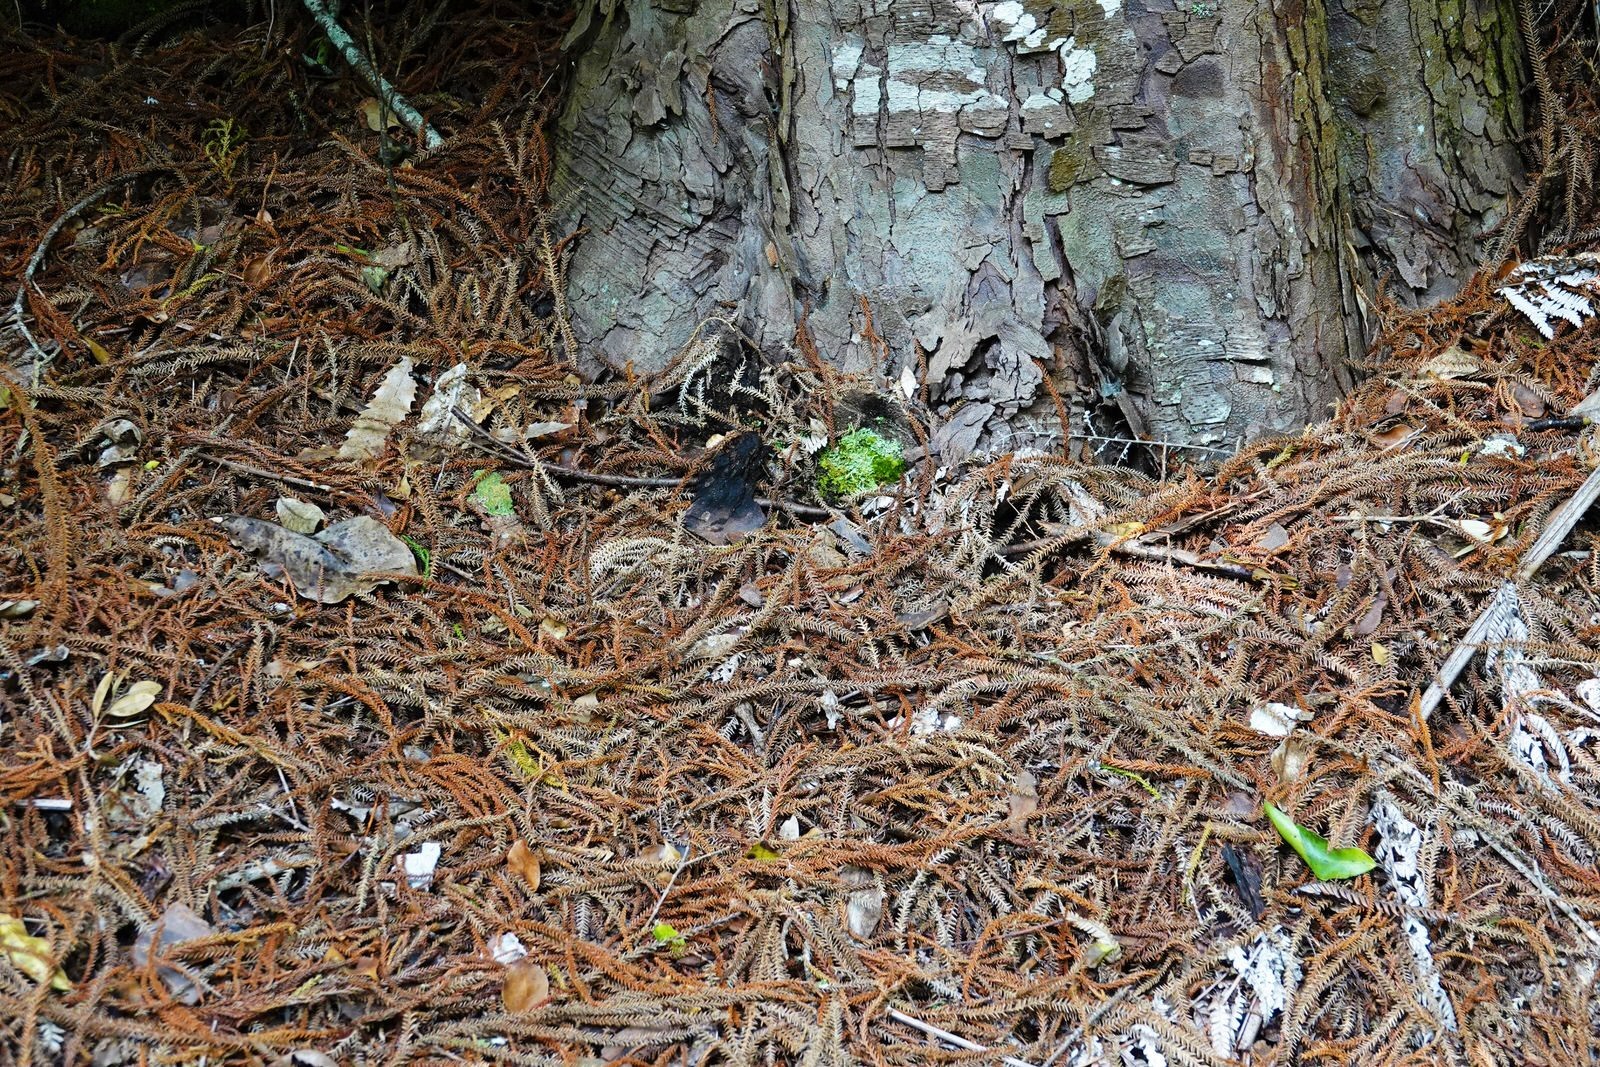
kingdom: Plantae
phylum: Tracheophyta
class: Pinopsida
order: Pinales
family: Podocarpaceae
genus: Dacrydium
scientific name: Dacrydium cupressinum
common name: Red pine
